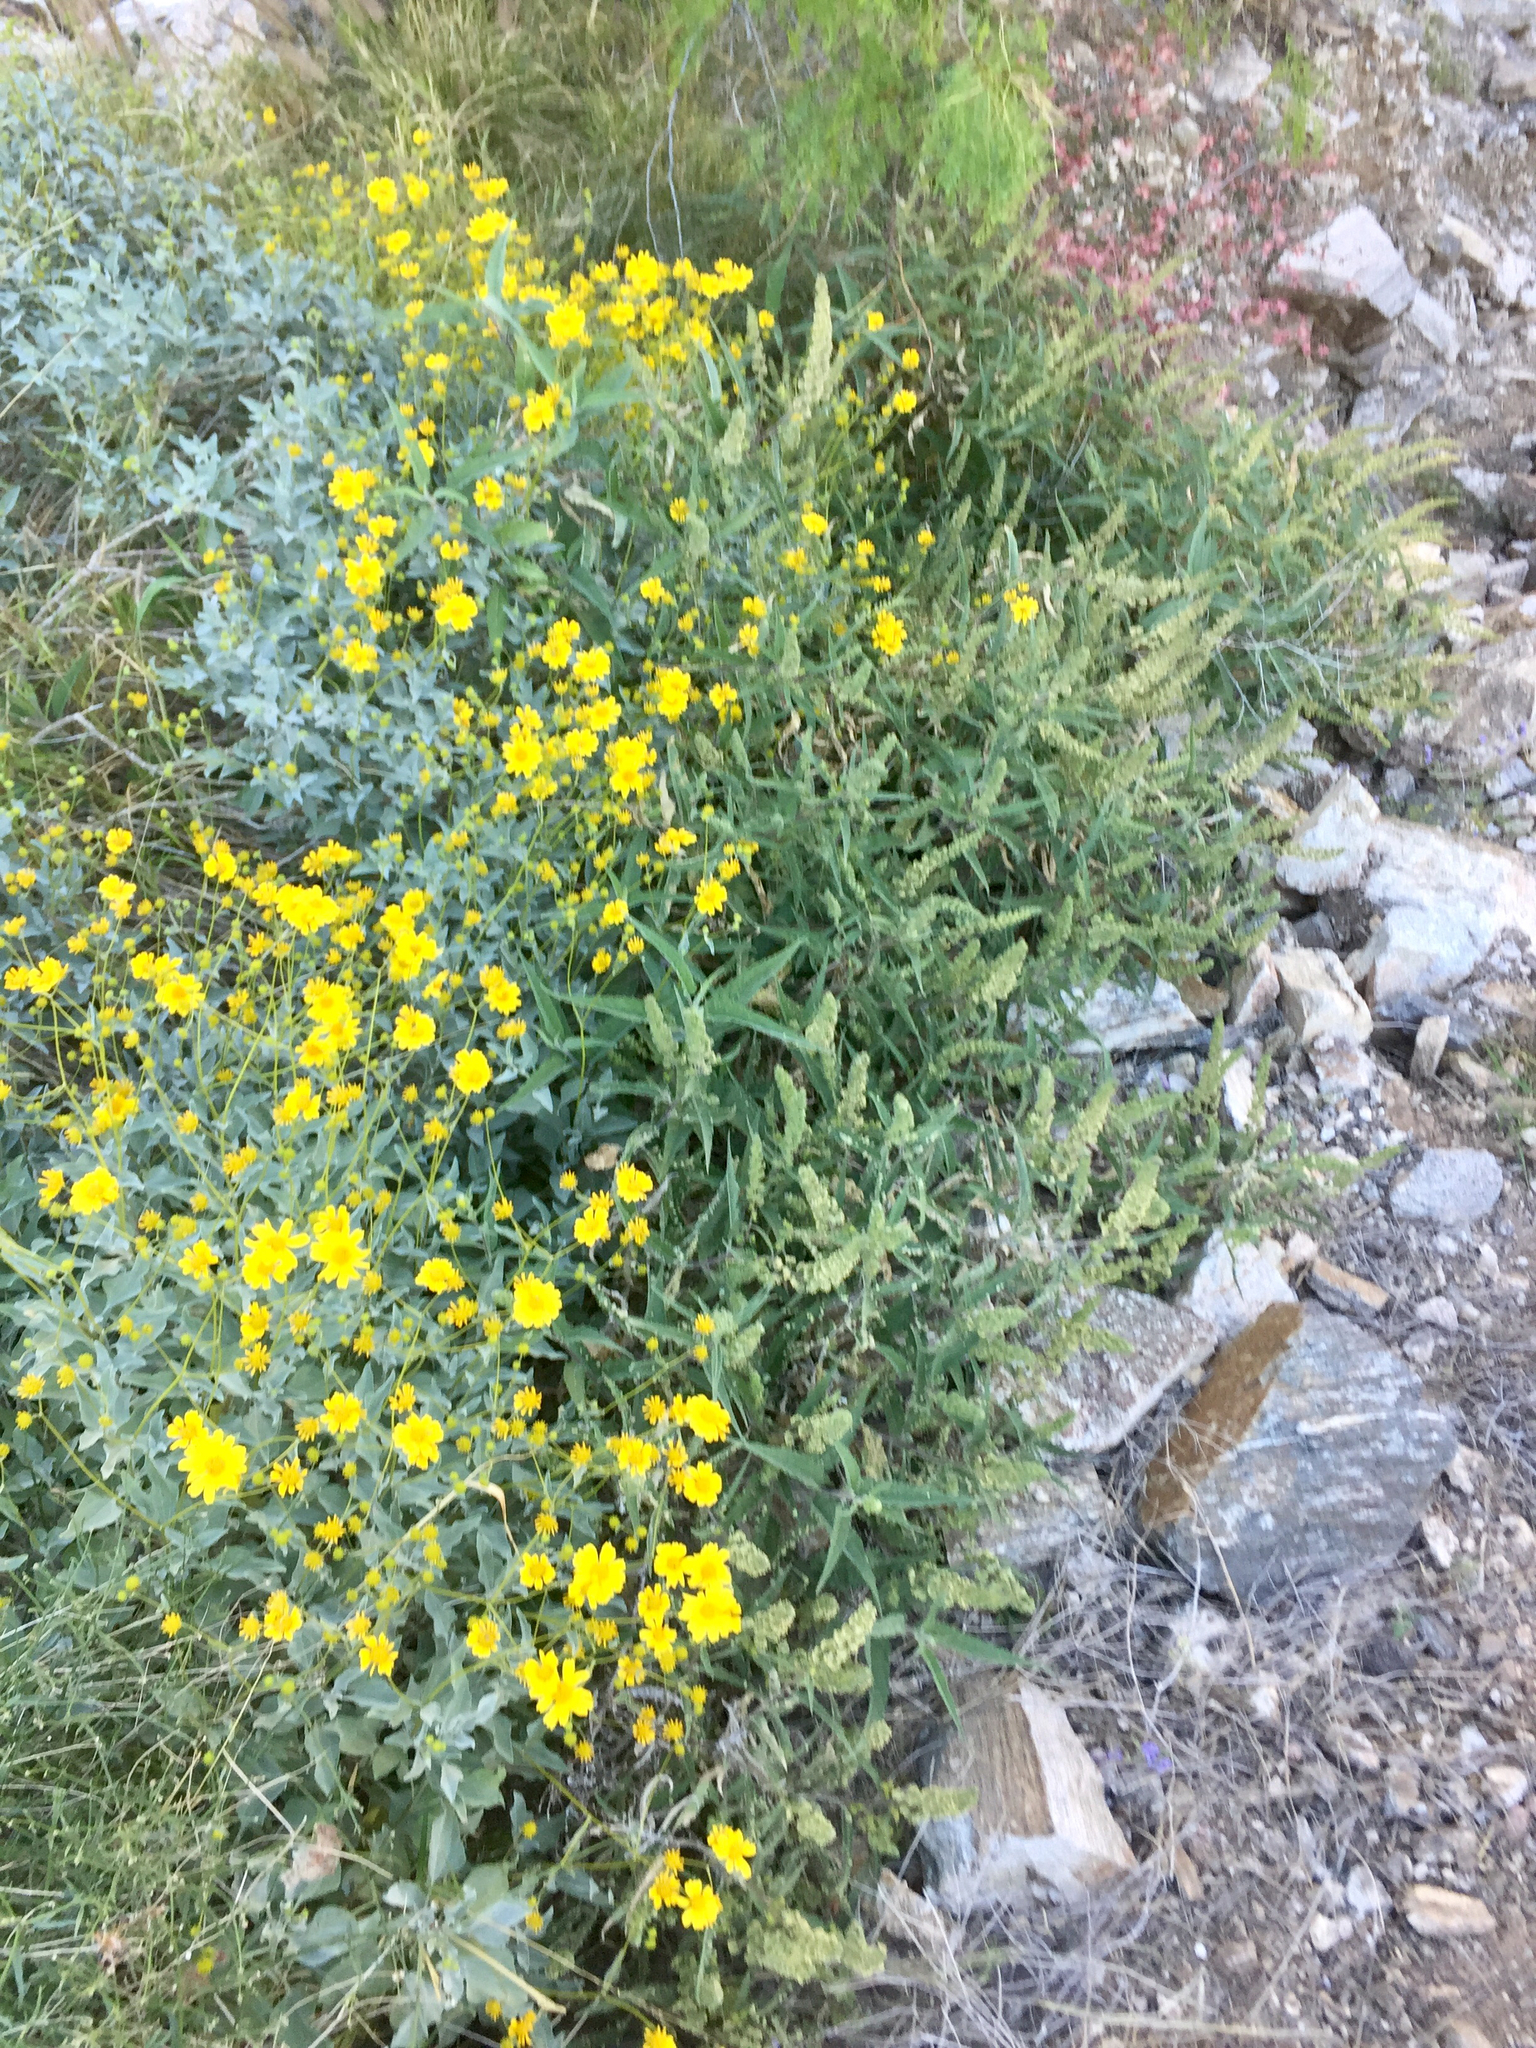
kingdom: Plantae
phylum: Tracheophyta
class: Magnoliopsida
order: Asterales
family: Asteraceae
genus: Ambrosia
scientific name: Ambrosia ambrosioides
